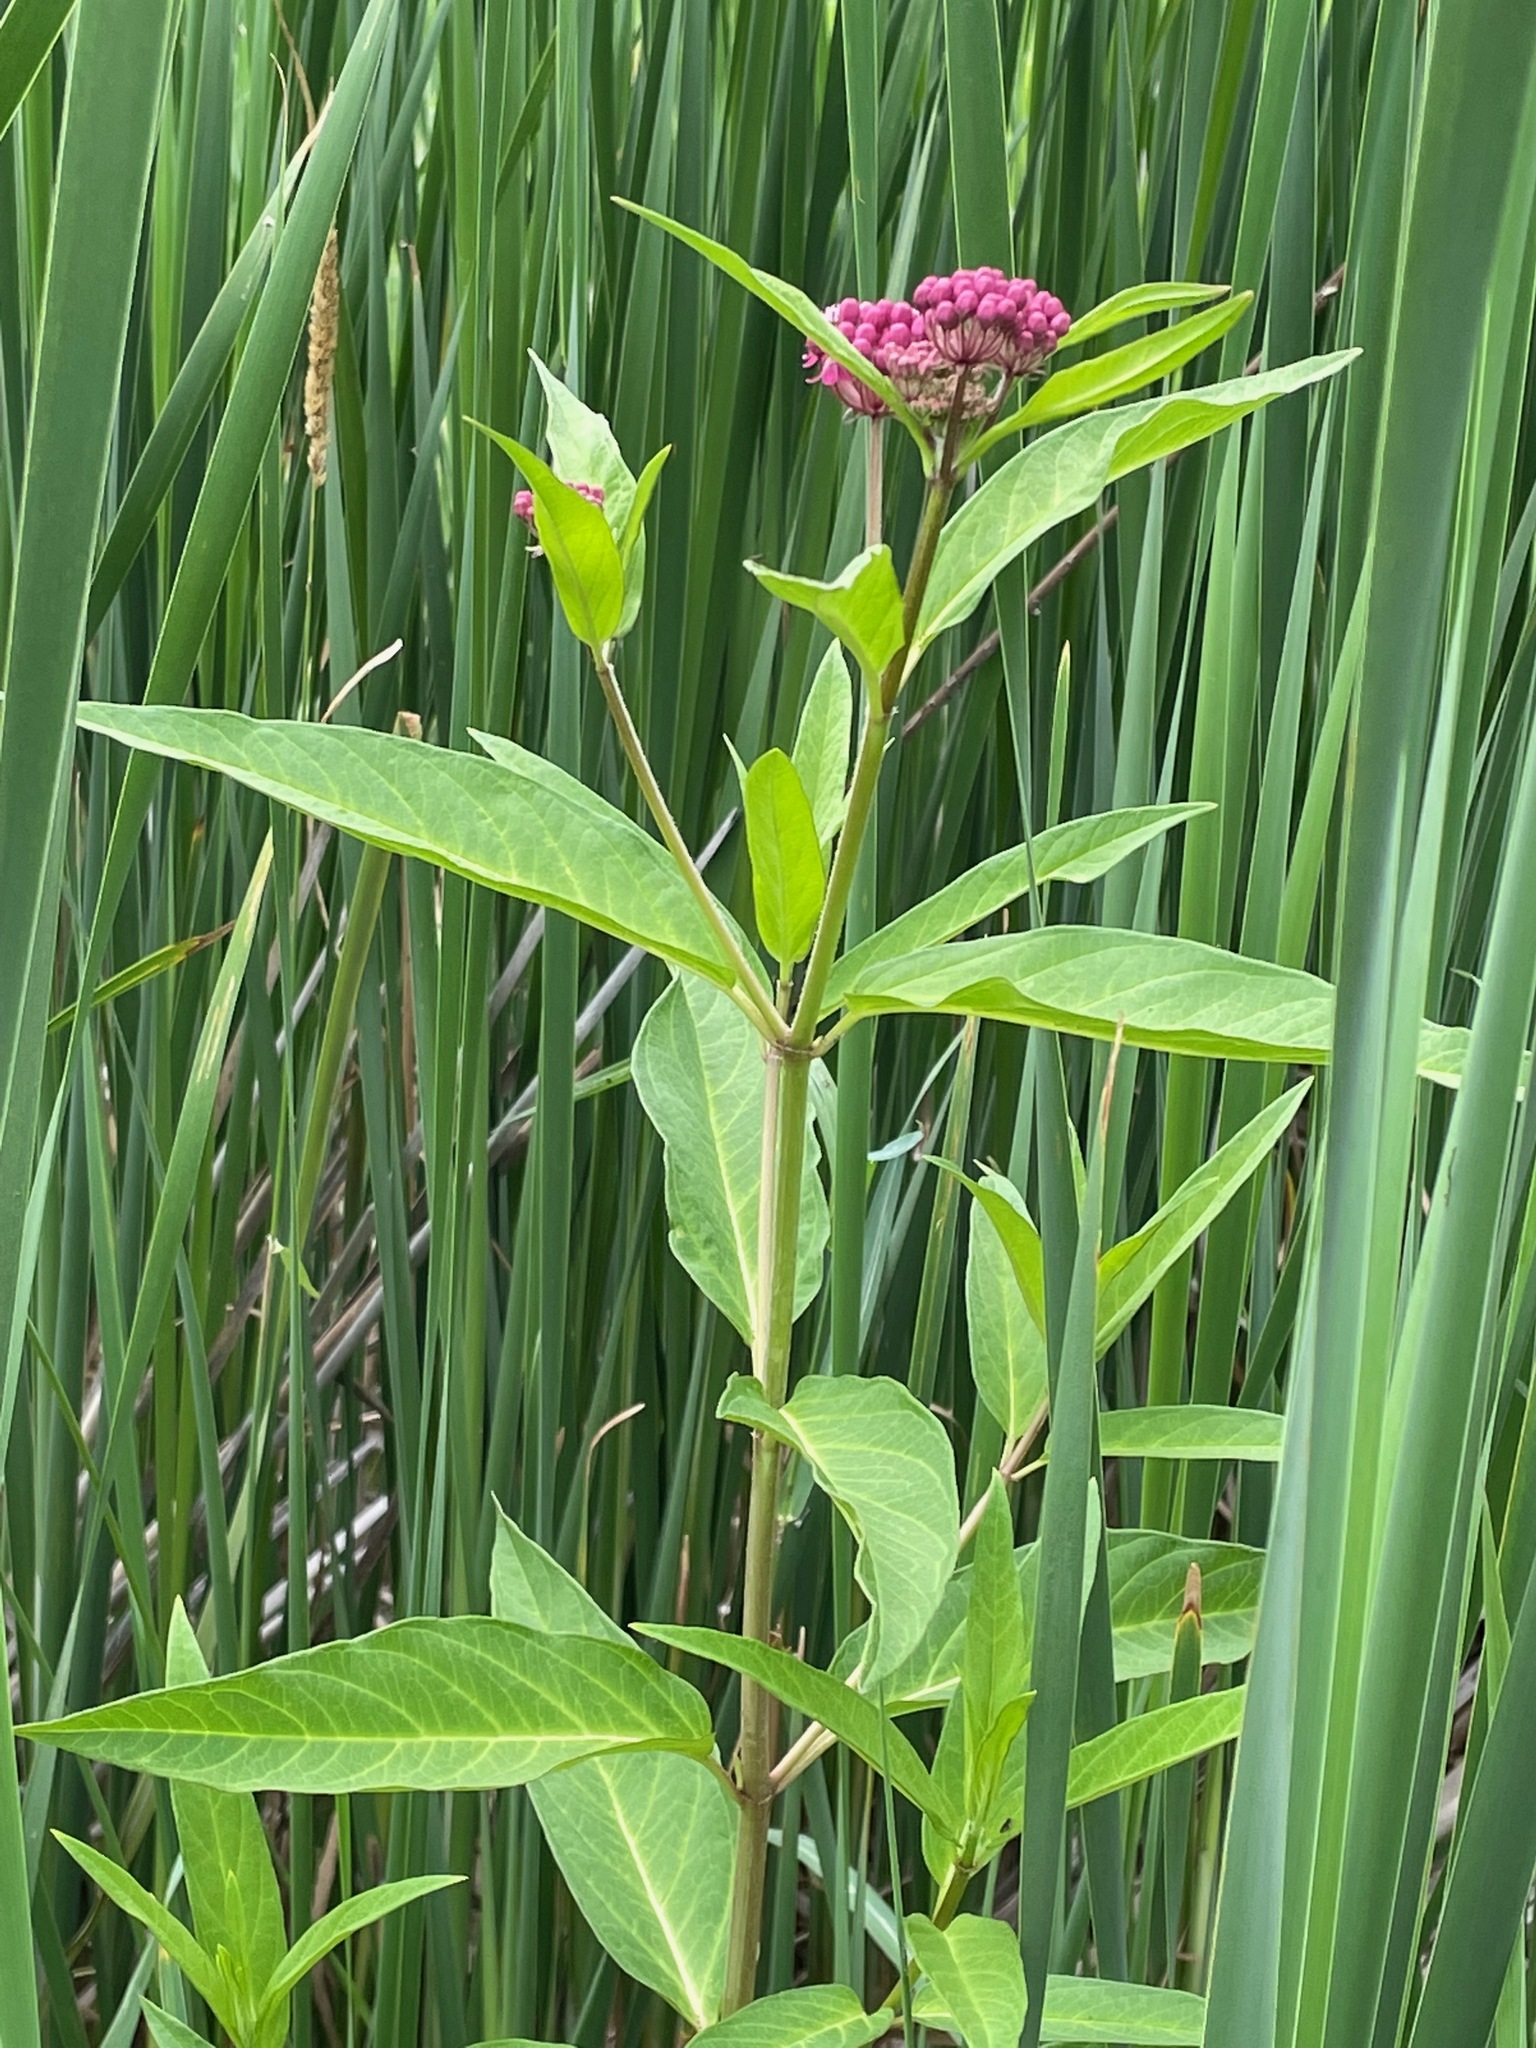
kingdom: Plantae
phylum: Tracheophyta
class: Magnoliopsida
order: Gentianales
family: Apocynaceae
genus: Asclepias
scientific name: Asclepias incarnata
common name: Swamp milkweed
